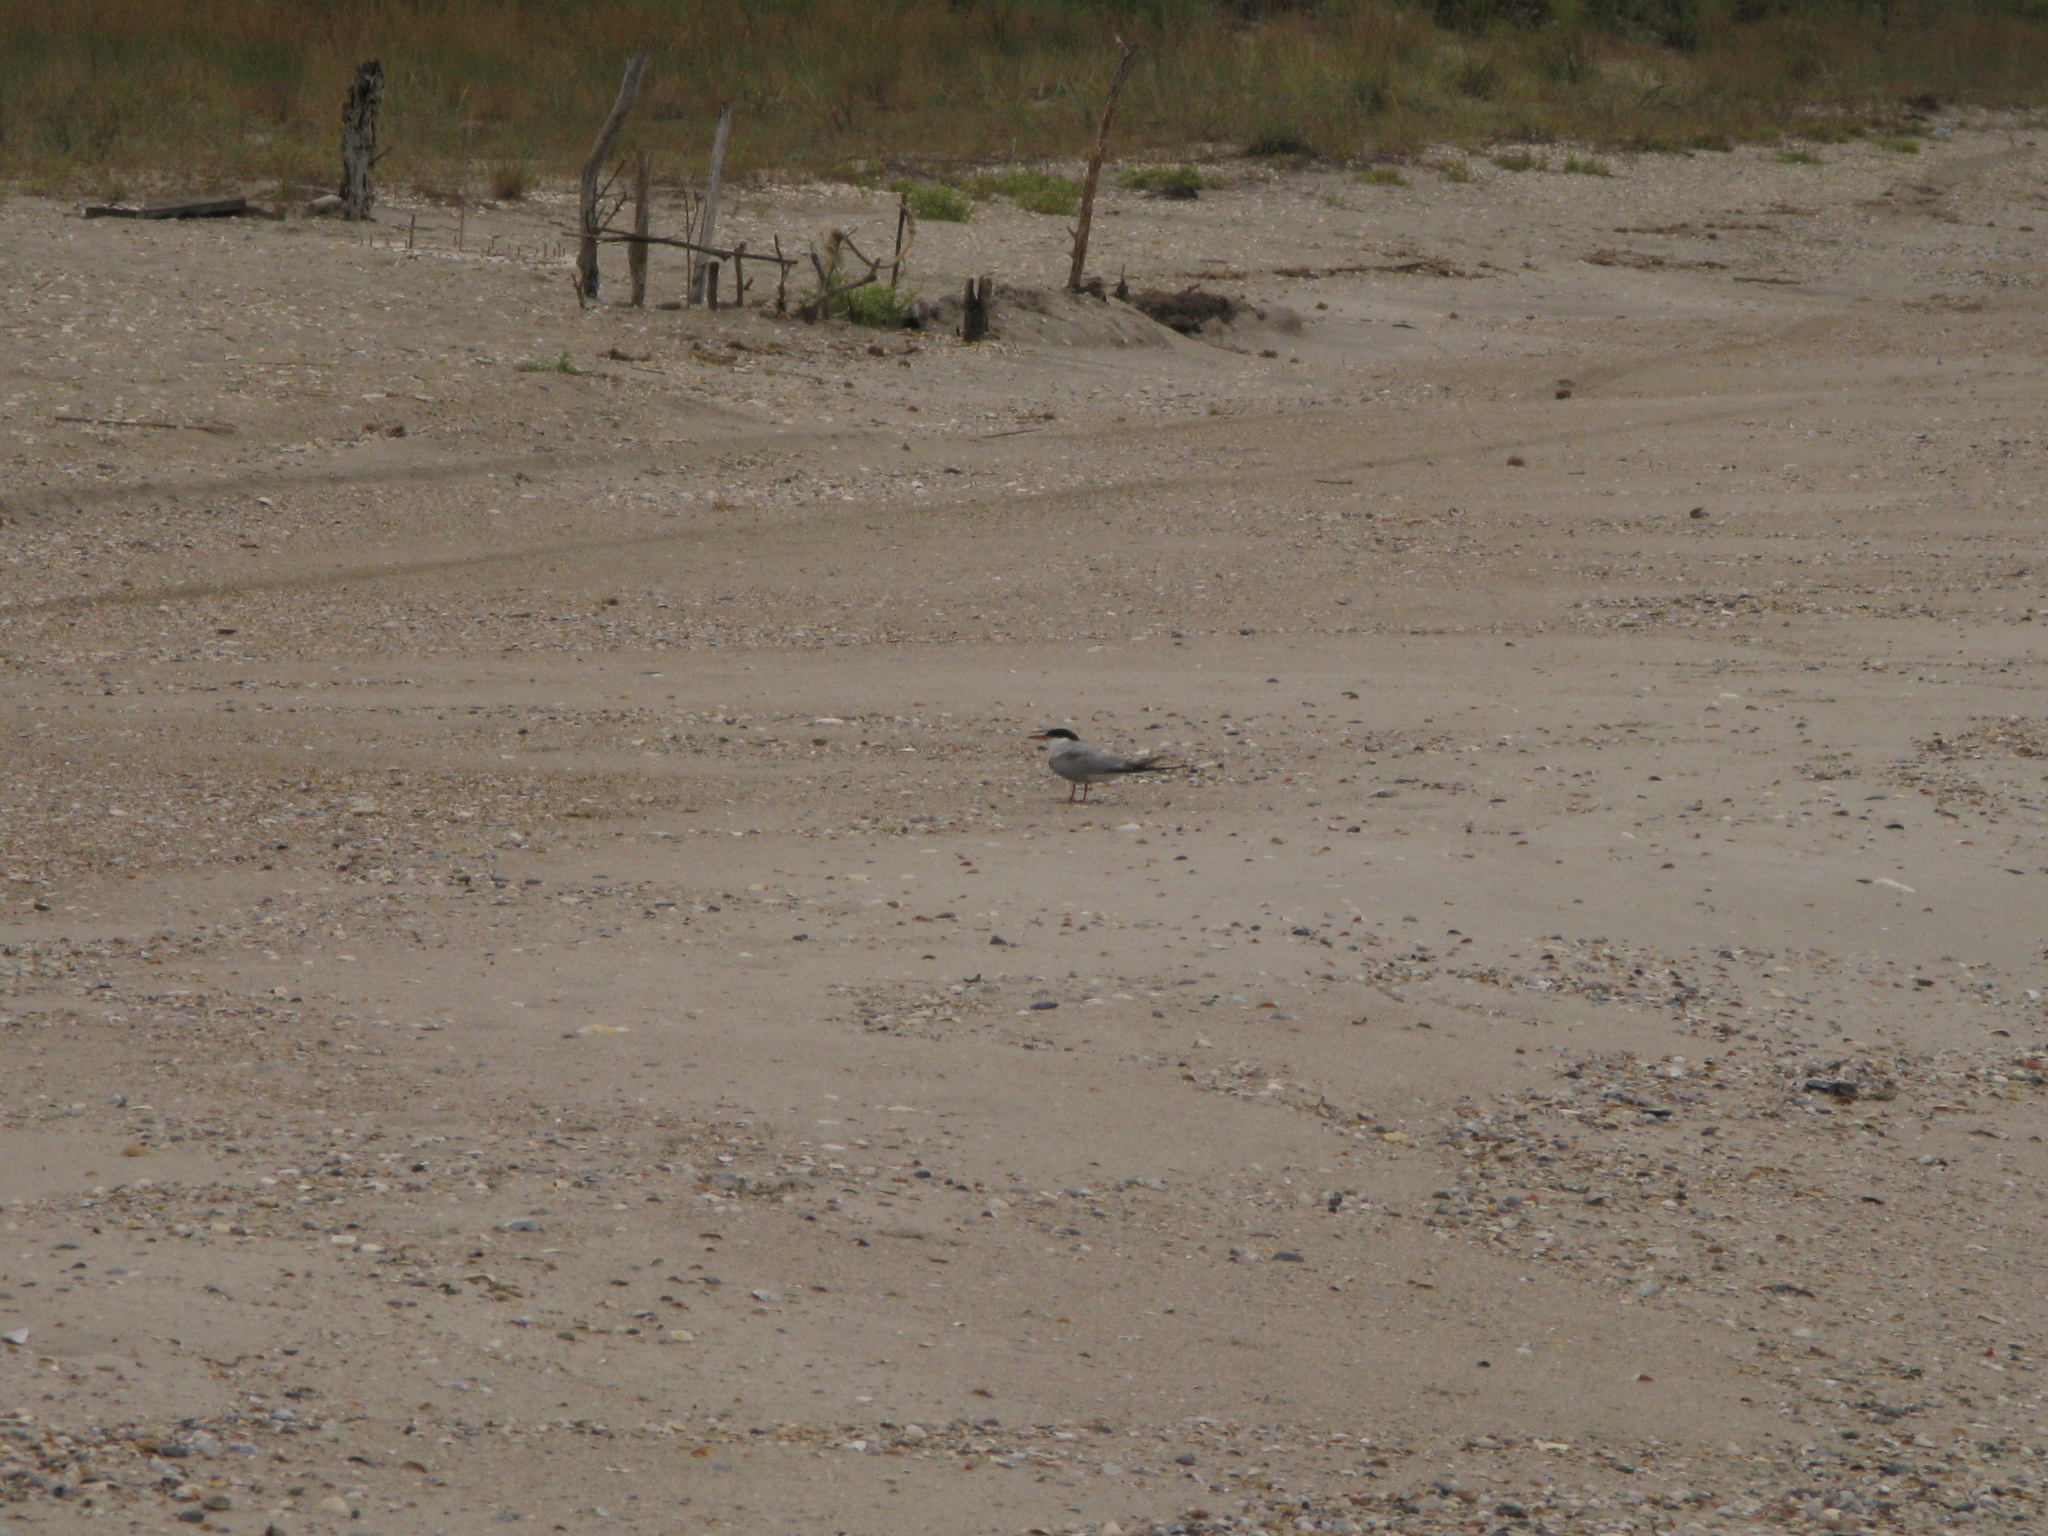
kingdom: Animalia
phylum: Chordata
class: Aves
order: Charadriiformes
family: Laridae
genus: Sterna
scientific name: Sterna hirundo
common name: Common tern
